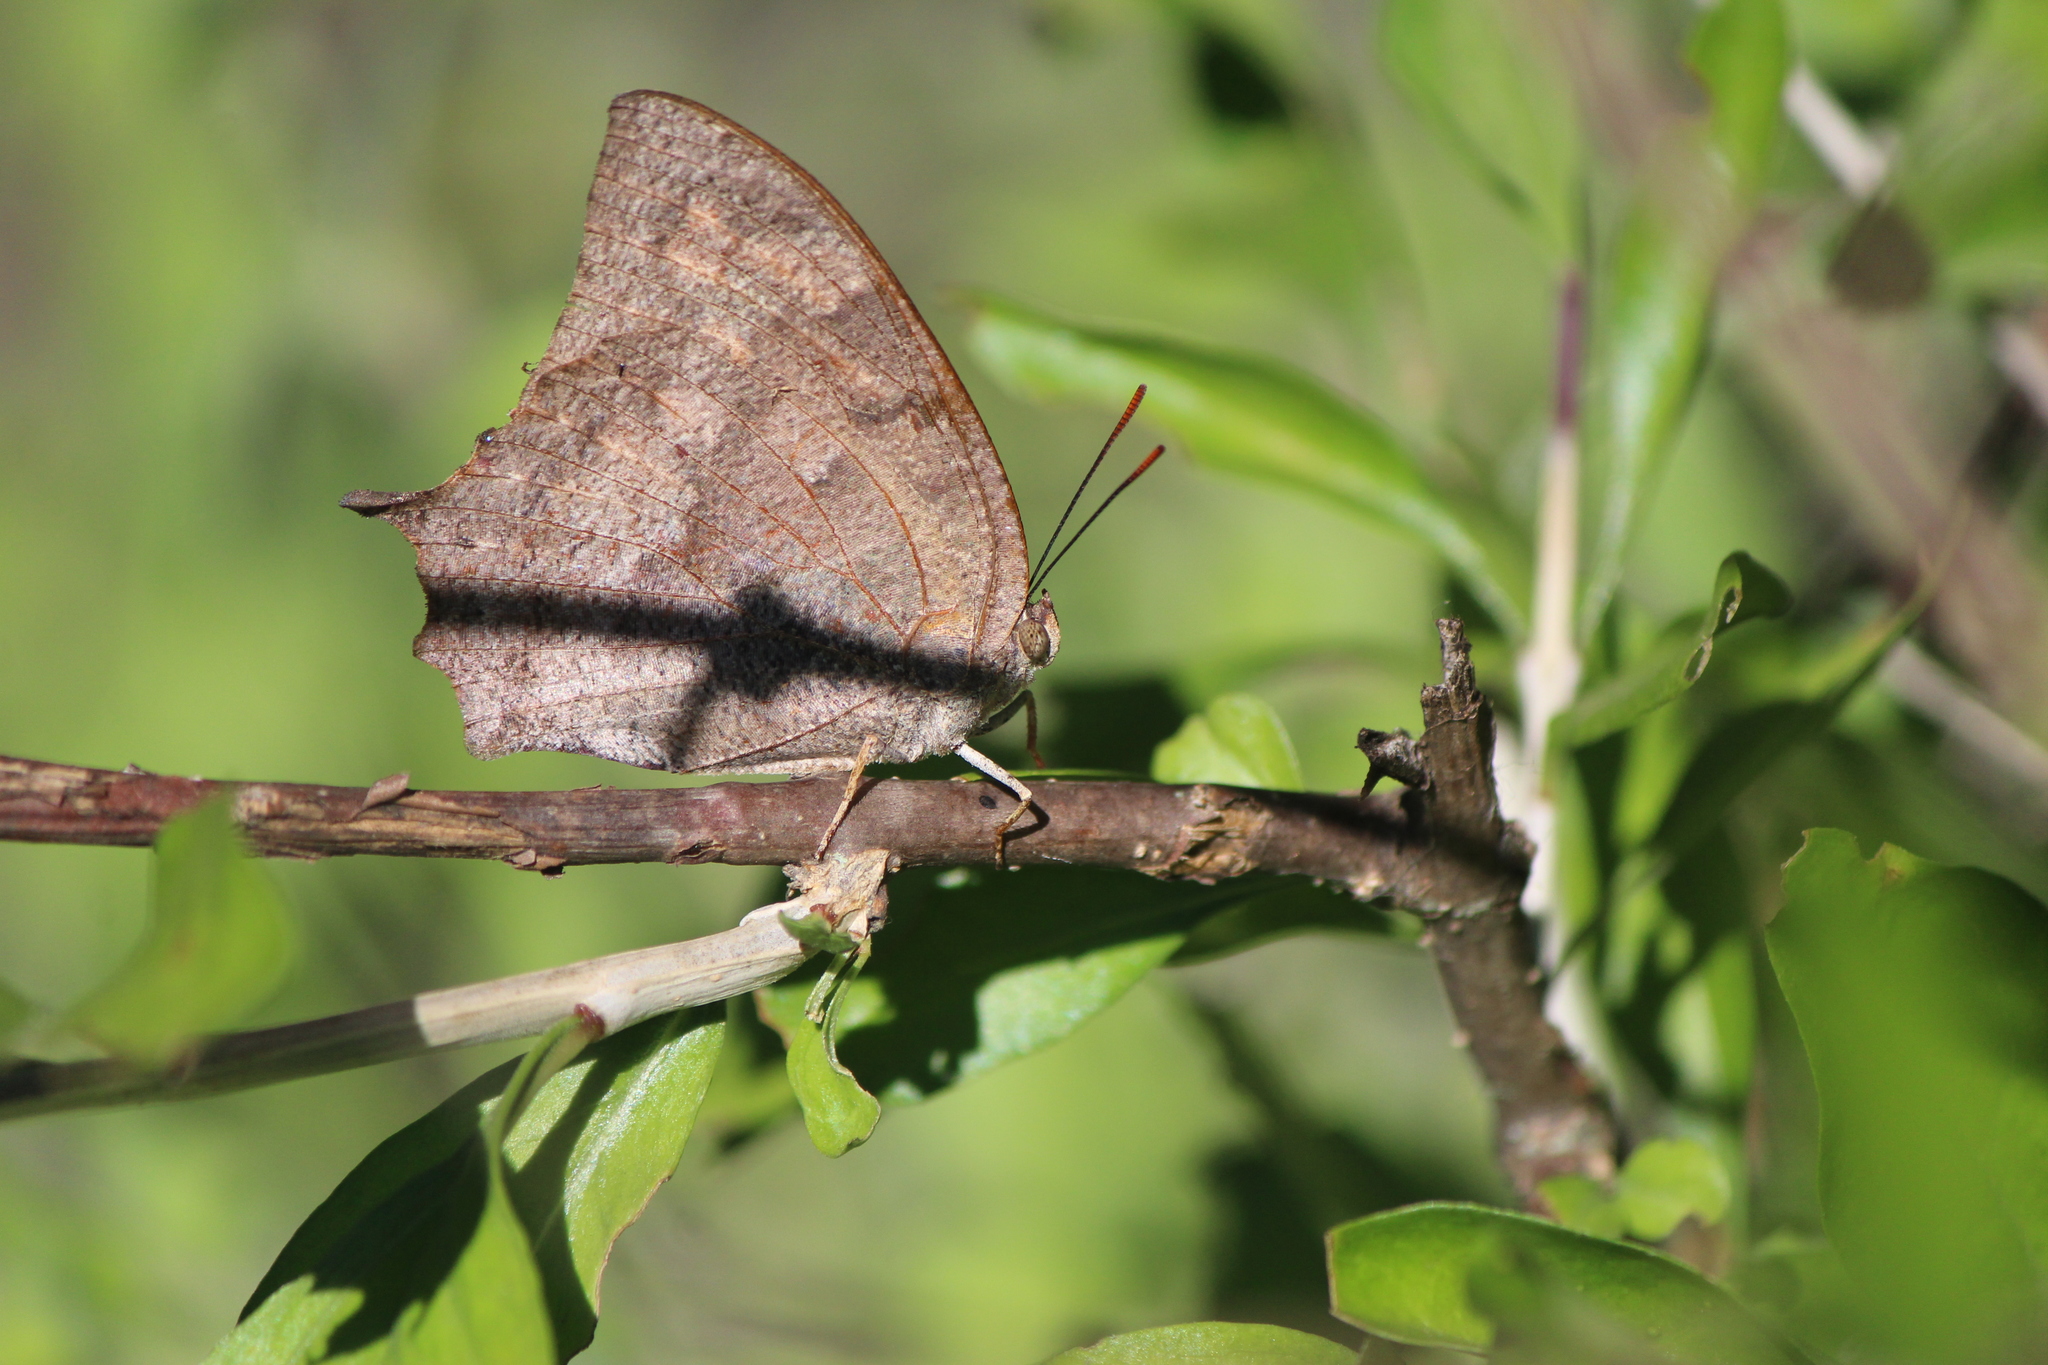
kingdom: Animalia
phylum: Arthropoda
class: Insecta
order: Lepidoptera
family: Nymphalidae
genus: Anaea
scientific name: Anaea aidea
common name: Tropical leafwing
